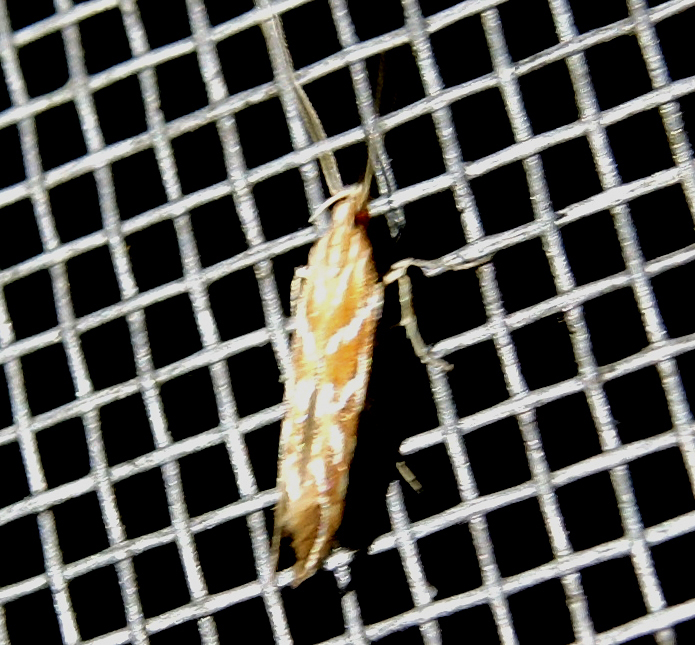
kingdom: Animalia
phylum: Arthropoda
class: Insecta
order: Lepidoptera
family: Cosmopterigidae
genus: Pyroderces
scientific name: Pyroderces argyrogrammos
